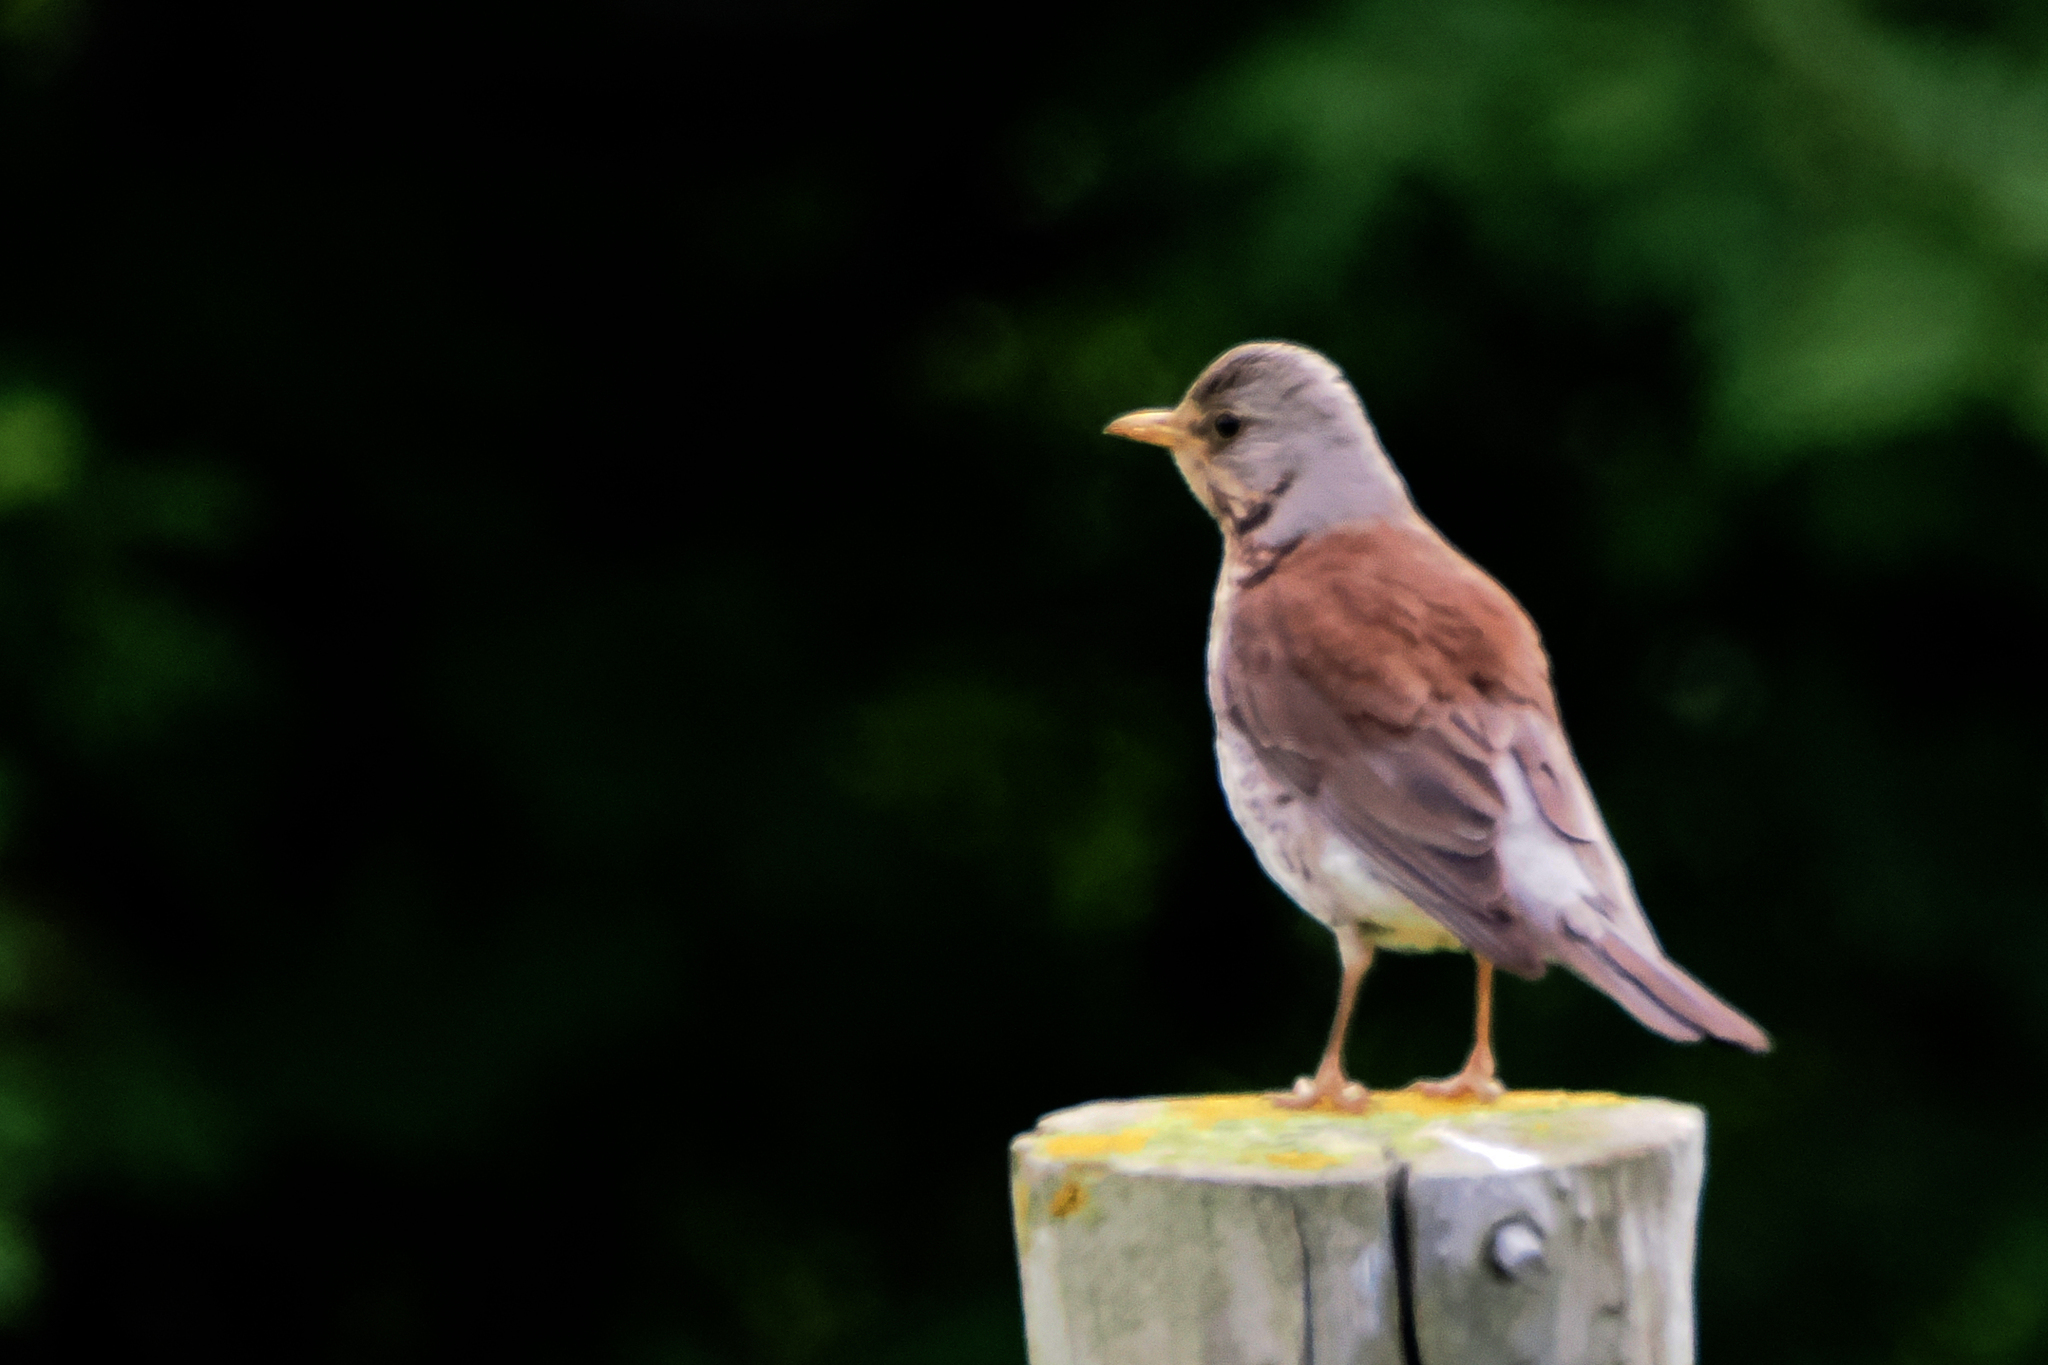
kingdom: Animalia
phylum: Chordata
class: Aves
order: Passeriformes
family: Turdidae
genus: Turdus
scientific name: Turdus pilaris
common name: Fieldfare
